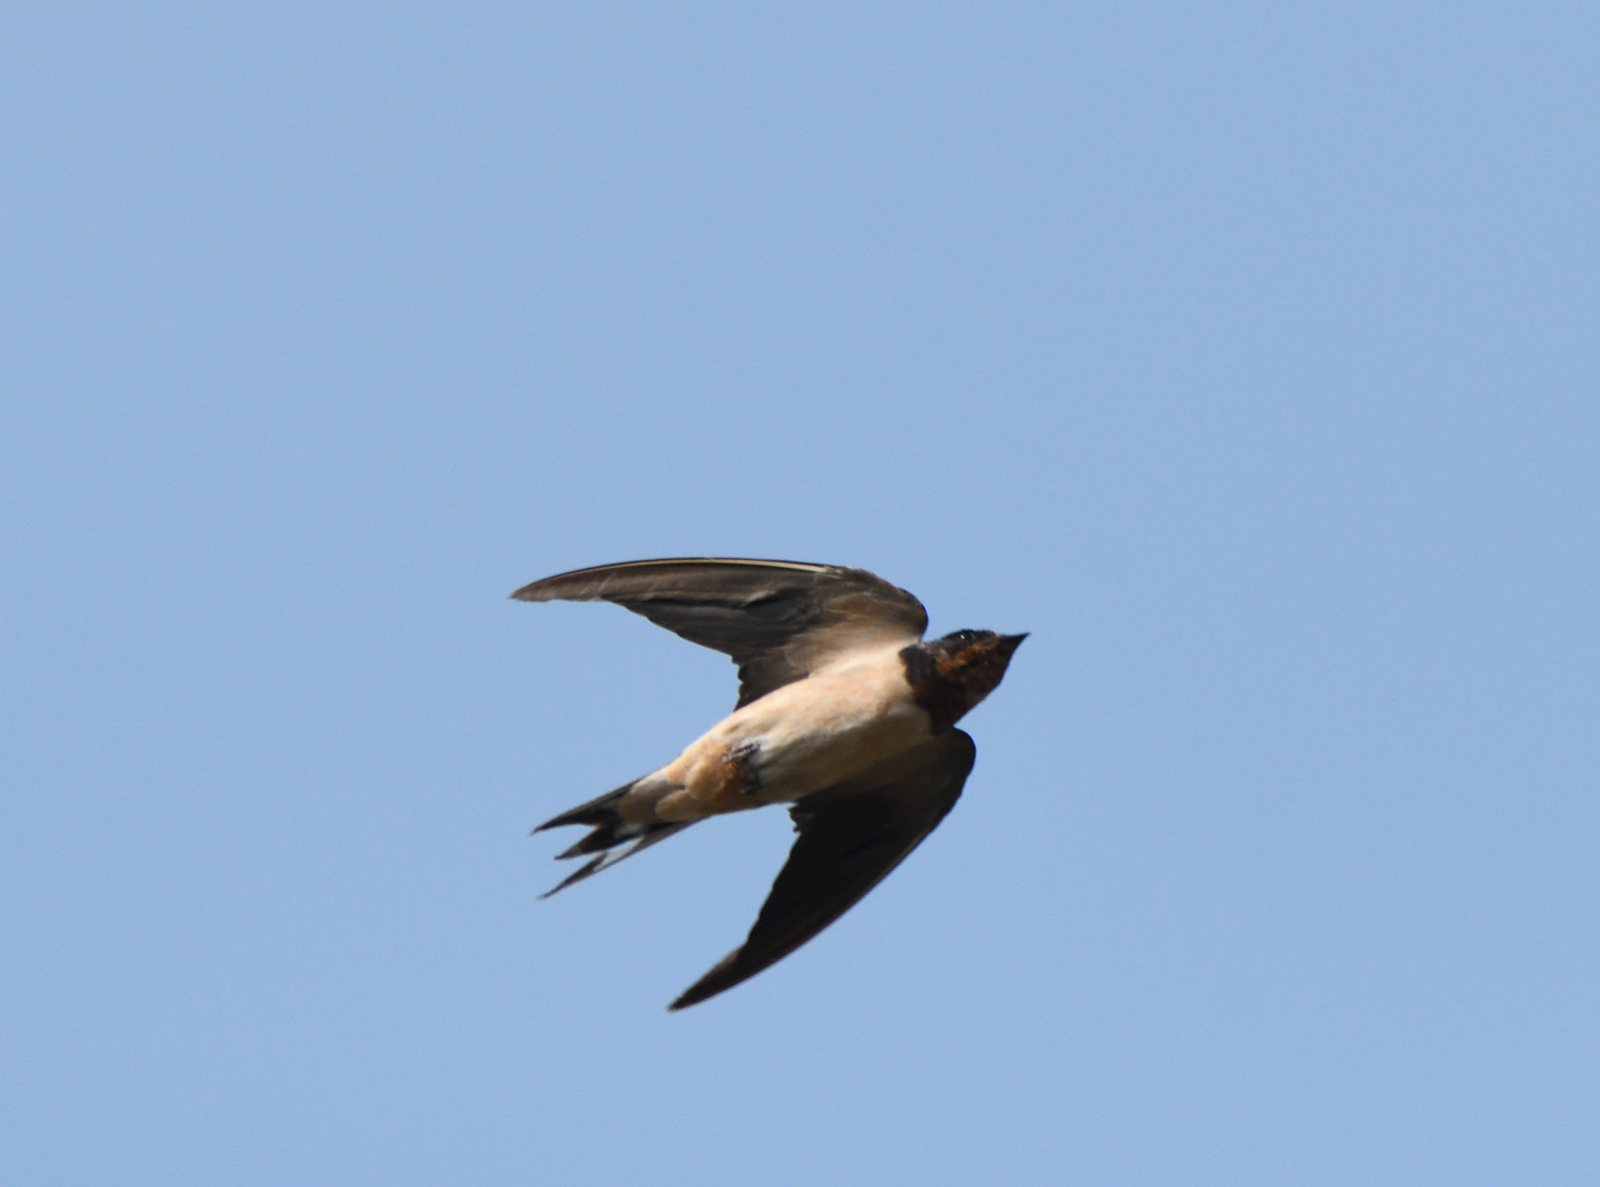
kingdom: Animalia
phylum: Chordata
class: Aves
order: Passeriformes
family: Hirundinidae
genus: Hirundo
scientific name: Hirundo rustica
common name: Barn swallow
